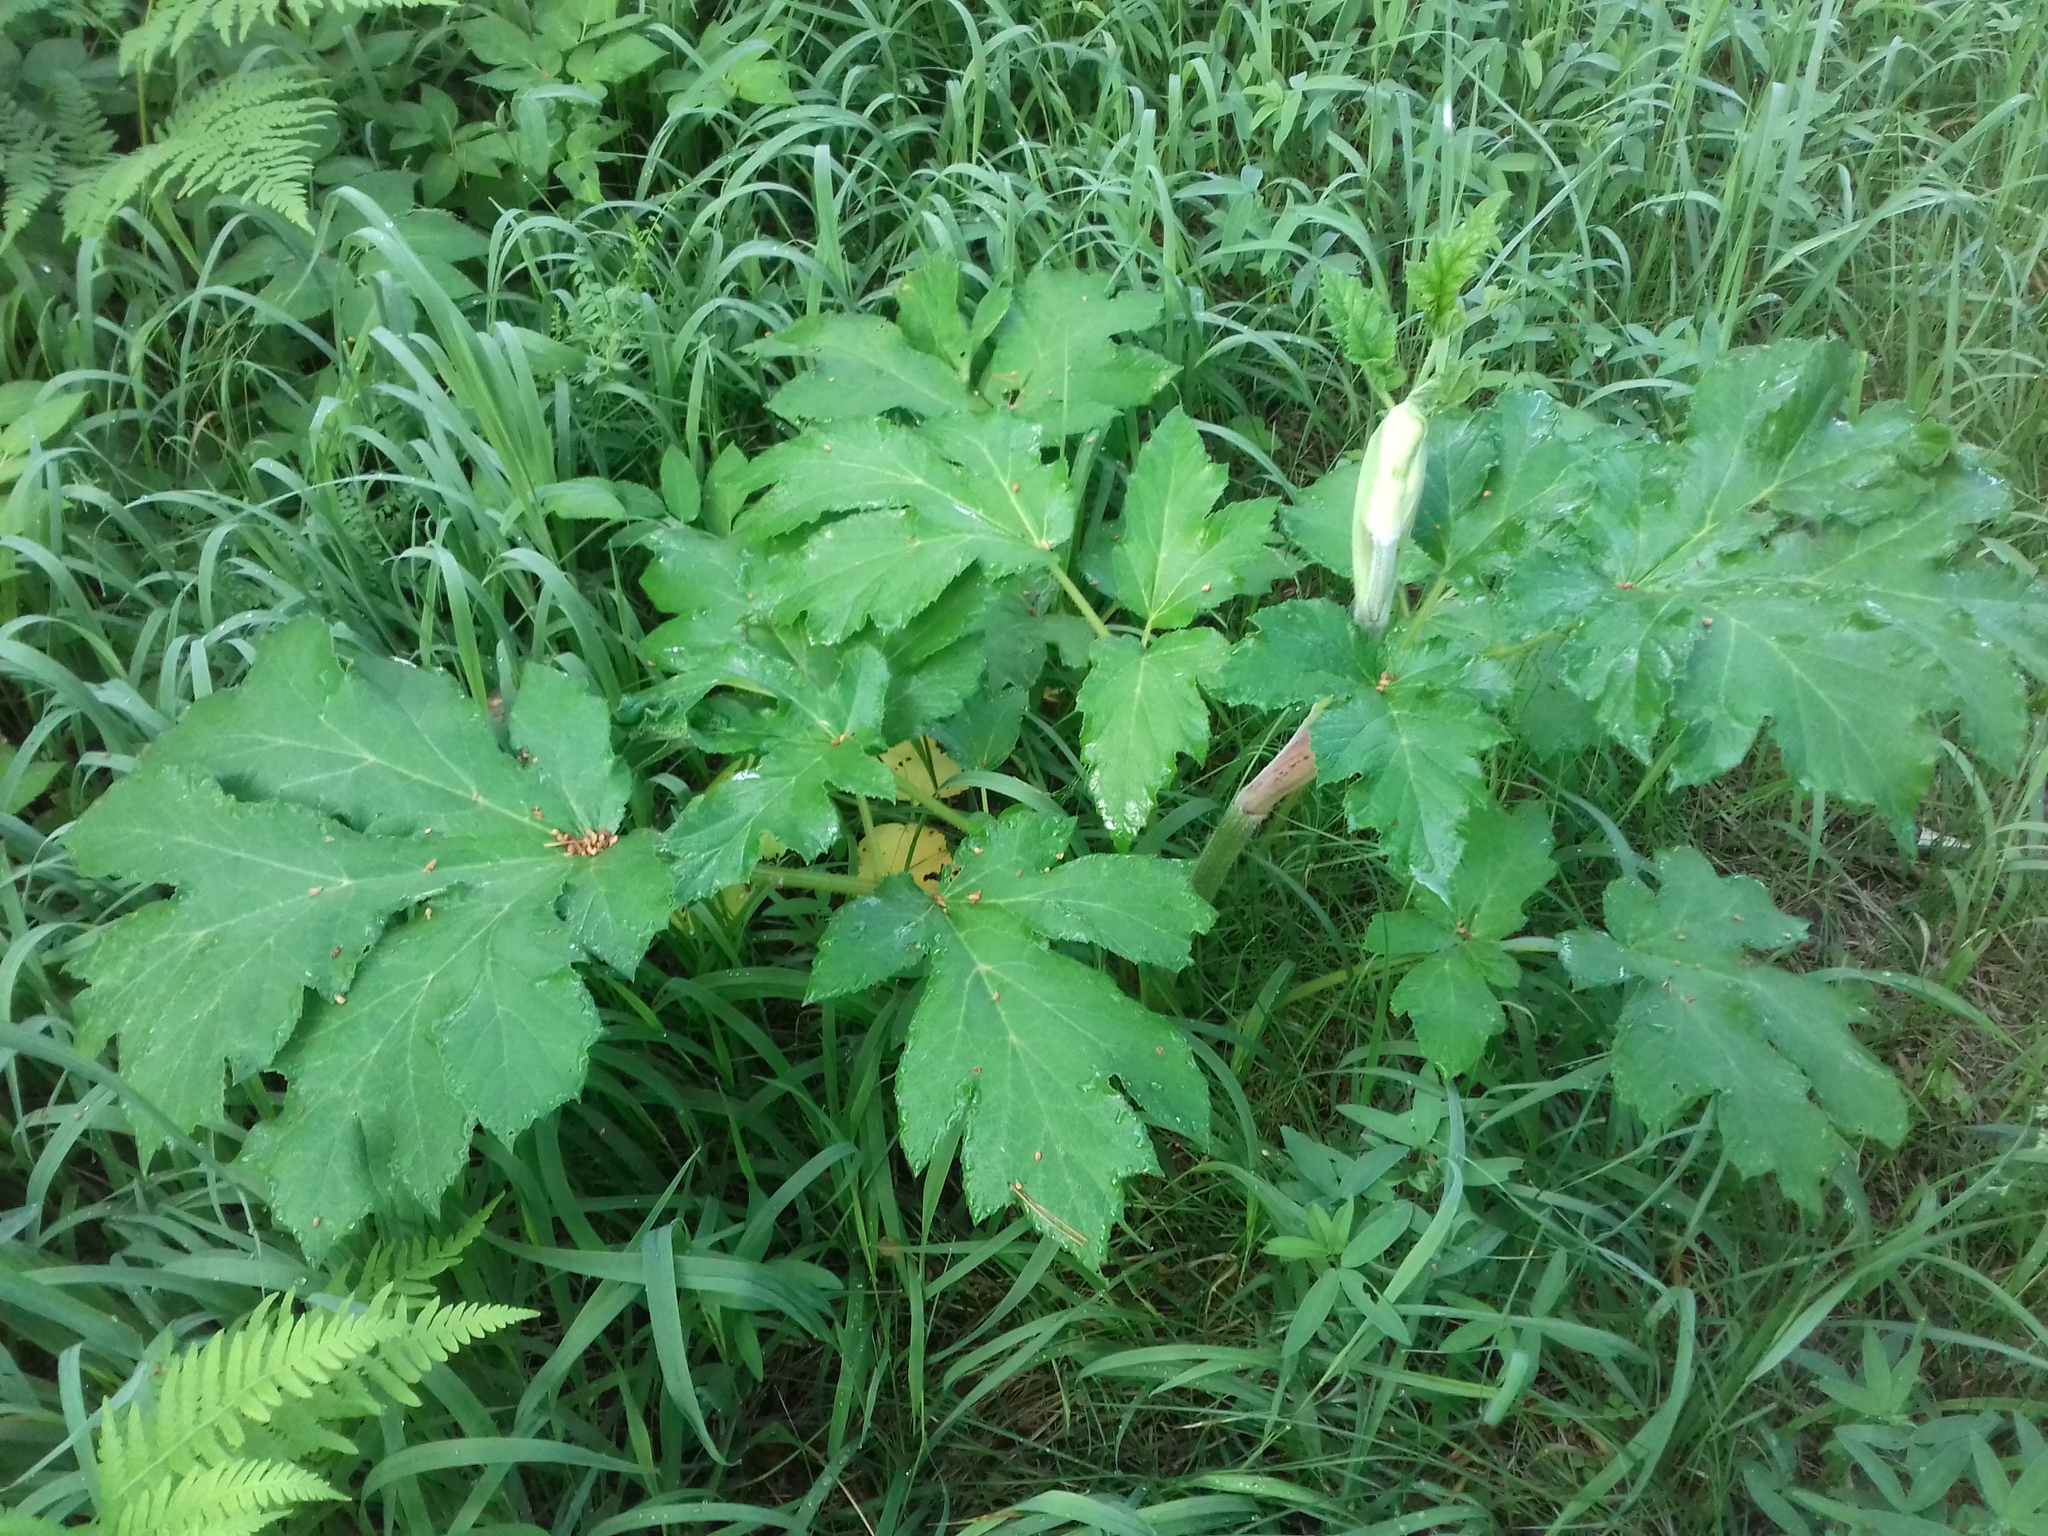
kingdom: Plantae
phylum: Tracheophyta
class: Magnoliopsida
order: Apiales
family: Apiaceae
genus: Heracleum
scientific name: Heracleum sosnowskyi
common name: Sosnowsky's hogweed
